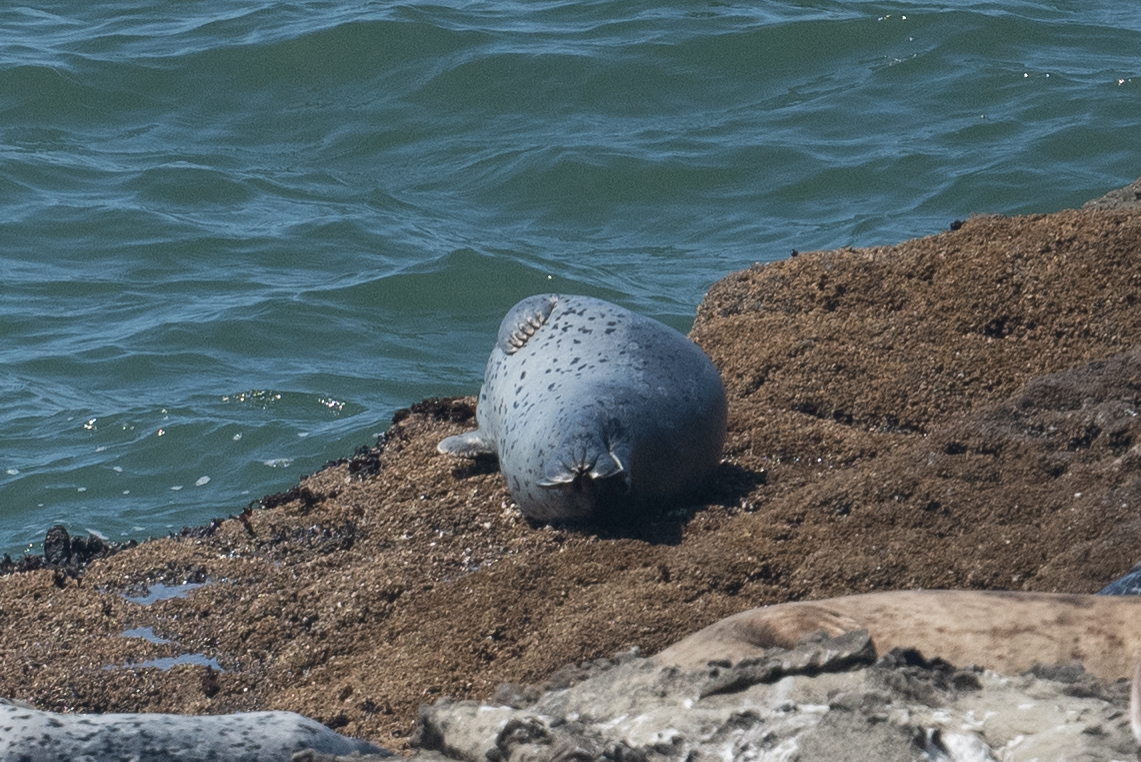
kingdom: Animalia
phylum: Chordata
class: Mammalia
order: Carnivora
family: Phocidae
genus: Phoca
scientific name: Phoca vitulina
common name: Harbor seal
